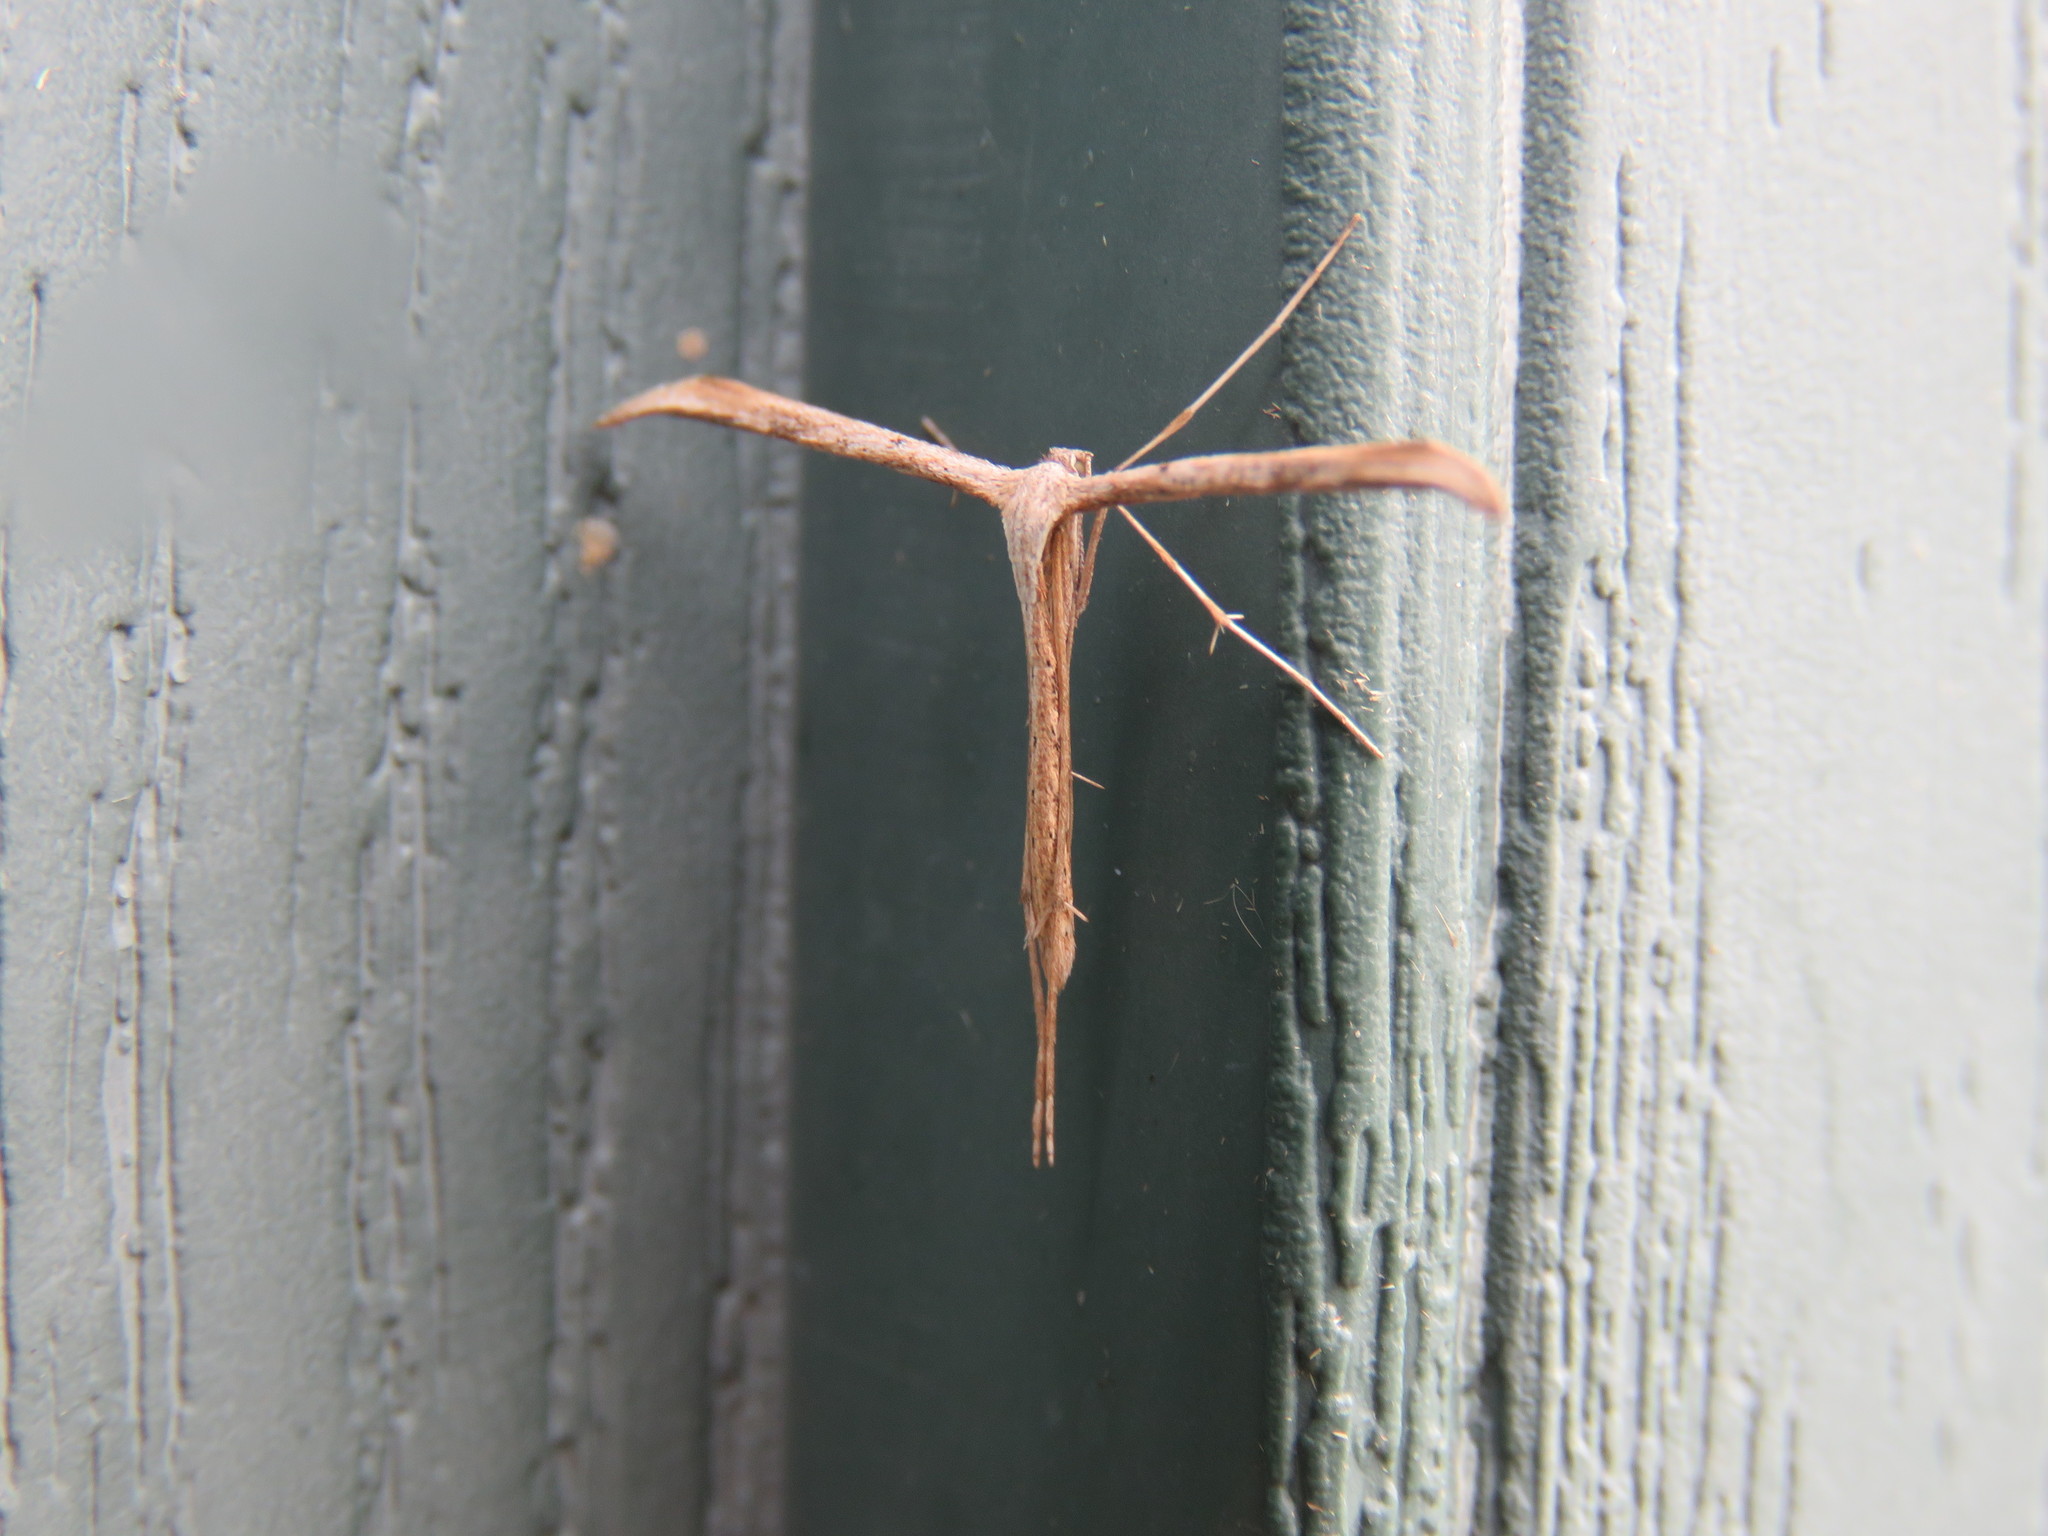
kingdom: Animalia
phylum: Arthropoda
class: Insecta
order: Lepidoptera
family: Pterophoridae
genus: Emmelina
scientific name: Emmelina monodactyla
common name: Common plume
